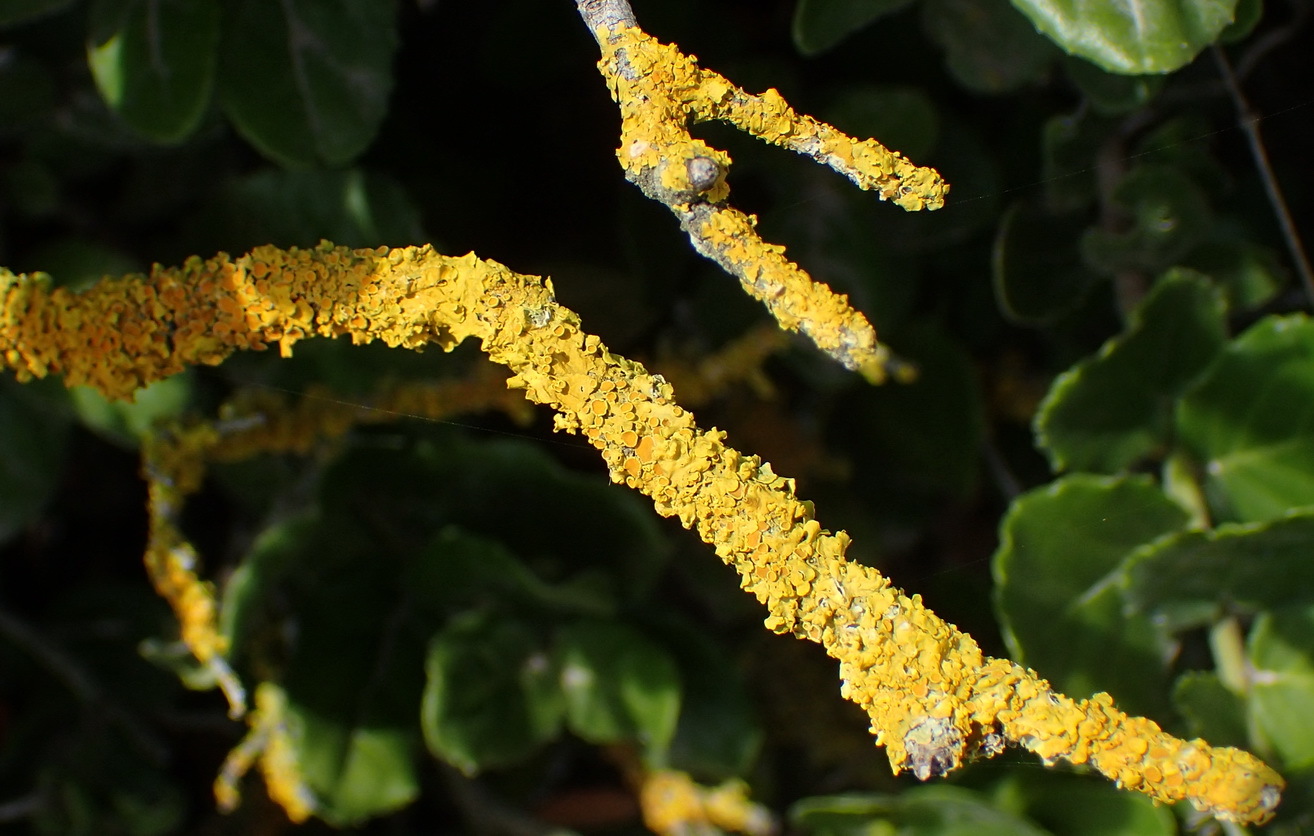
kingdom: Fungi
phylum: Ascomycota
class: Lecanoromycetes
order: Teloschistales
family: Teloschistaceae
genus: Xanthoria
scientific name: Xanthoria parietina
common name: Common orange lichen
